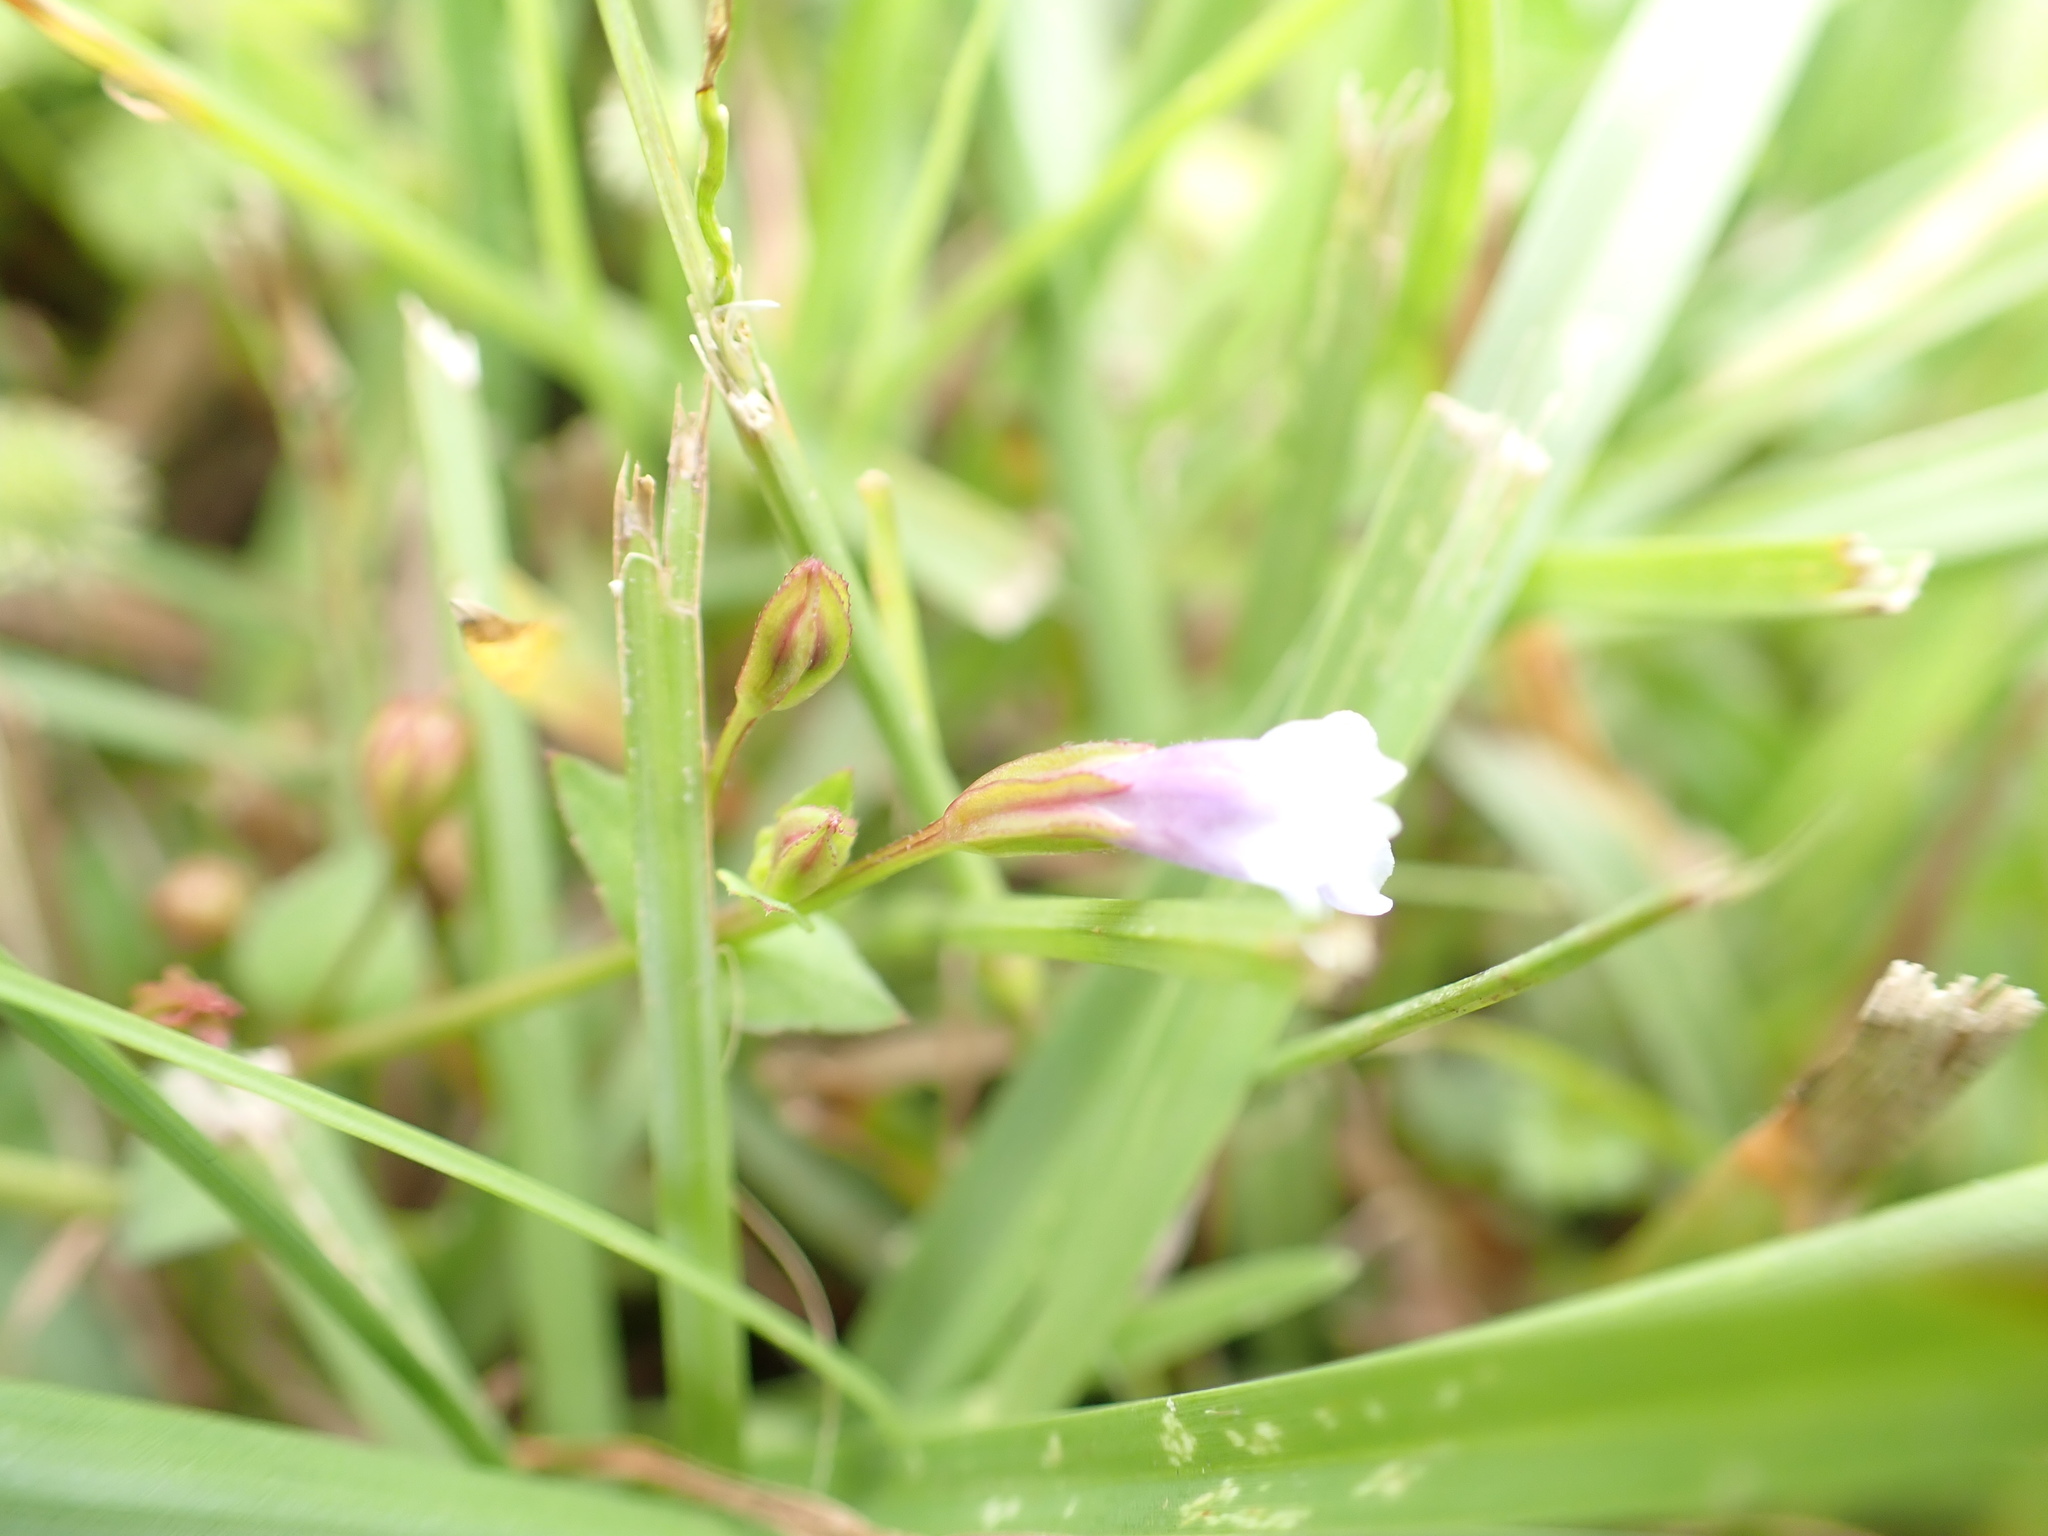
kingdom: Plantae
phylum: Tracheophyta
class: Magnoliopsida
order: Lamiales
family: Linderniaceae
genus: Torenia
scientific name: Torenia crustacea
